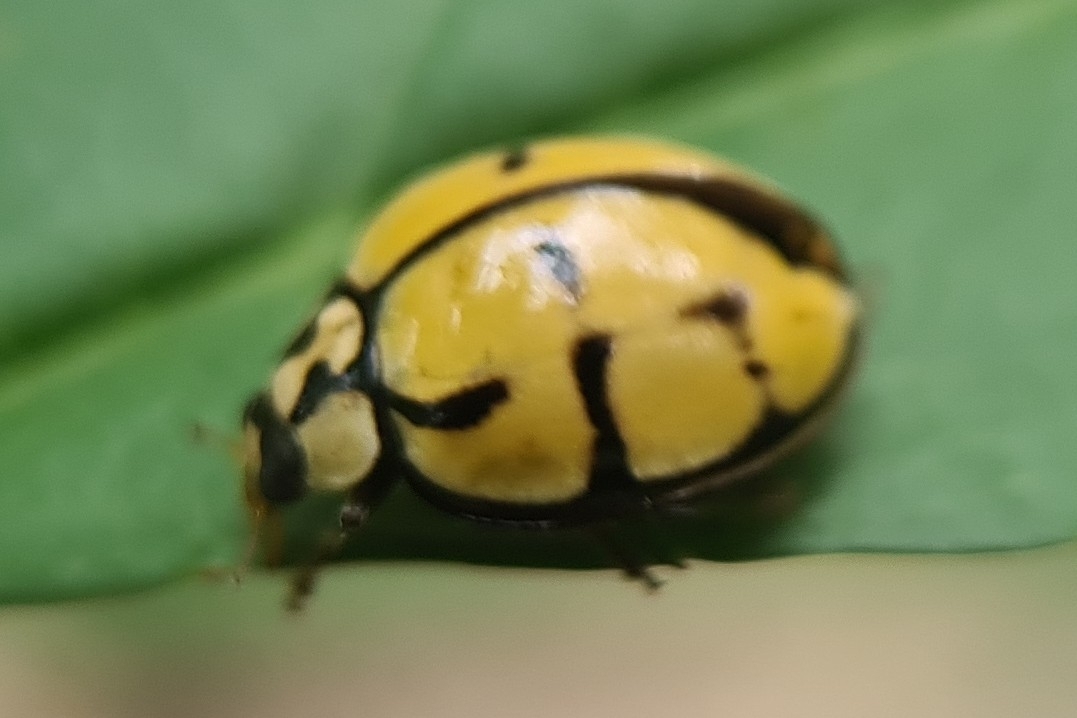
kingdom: Animalia
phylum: Arthropoda
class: Insecta
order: Coleoptera
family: Coccinellidae
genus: Harmonia
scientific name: Harmonia
